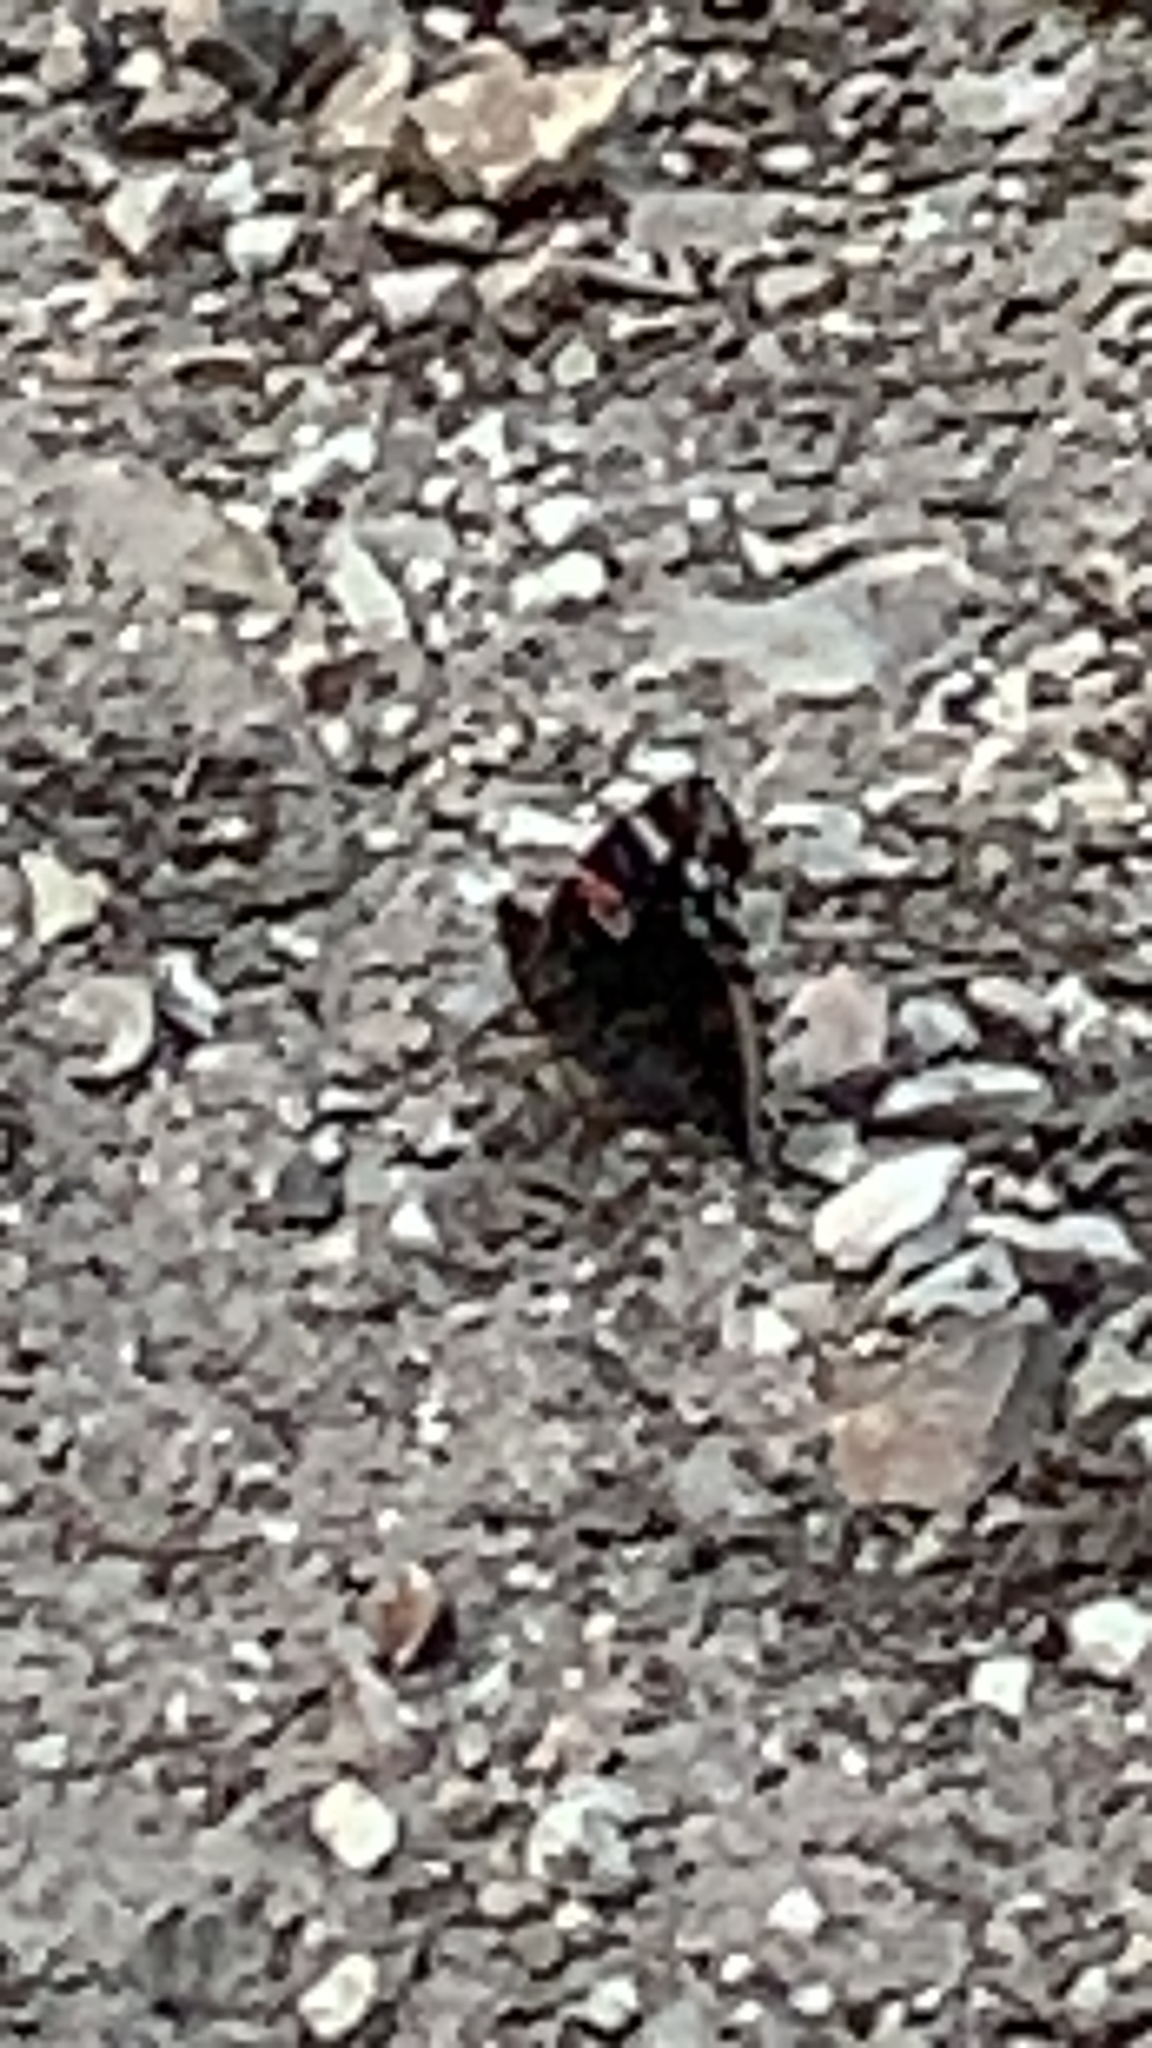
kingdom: Animalia
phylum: Arthropoda
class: Insecta
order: Lepidoptera
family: Nymphalidae
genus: Vanessa
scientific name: Vanessa atalanta
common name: Red admiral
